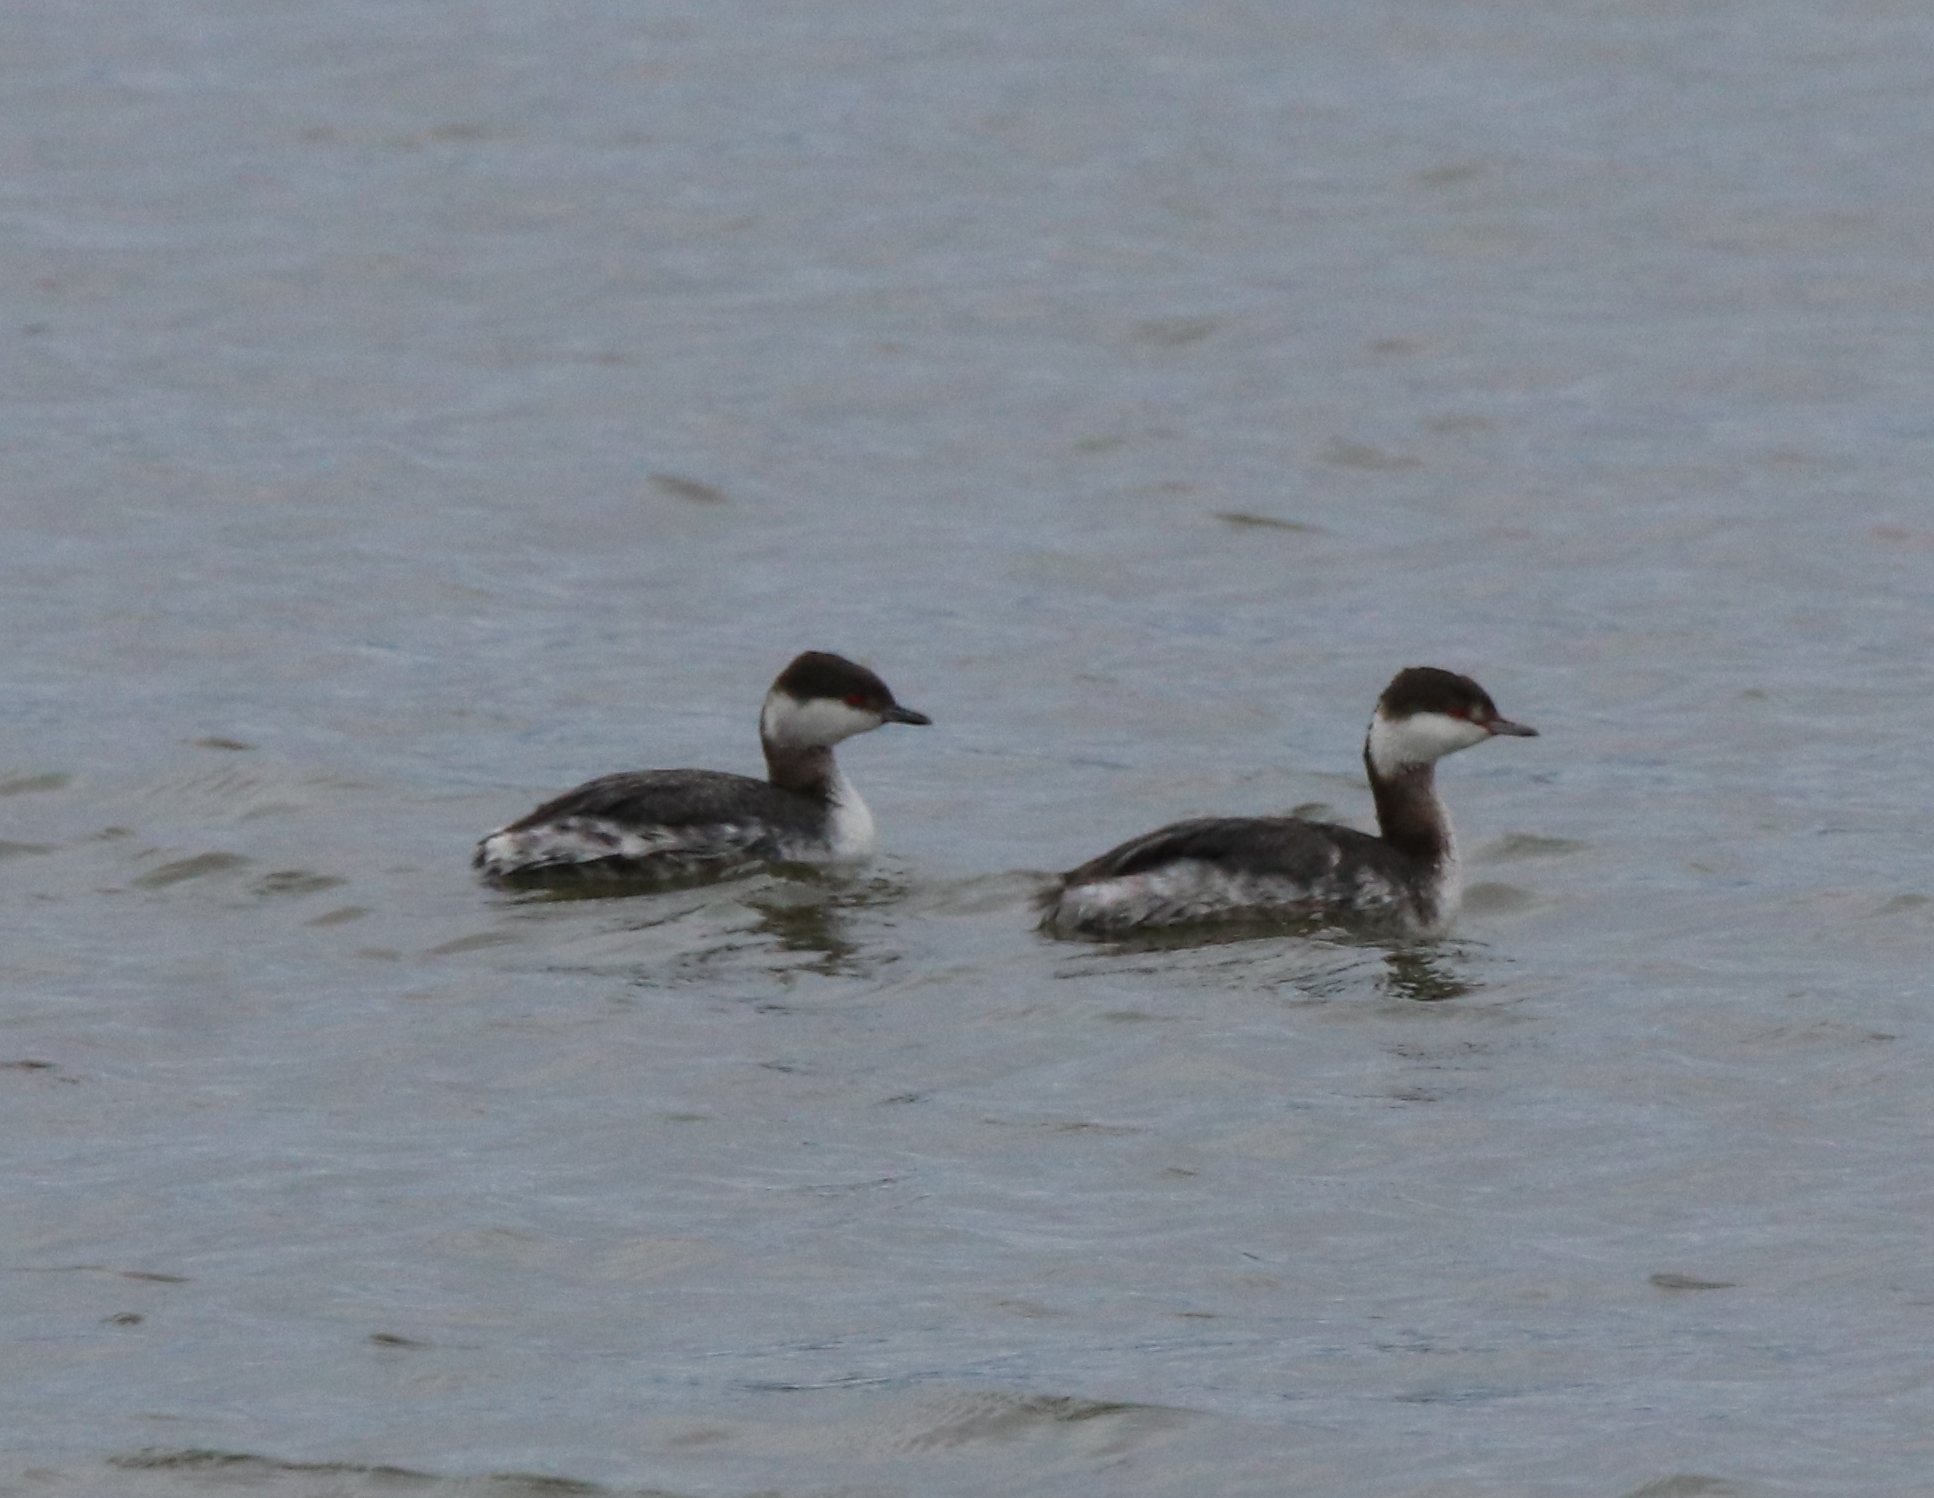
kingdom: Animalia
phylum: Chordata
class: Aves
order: Podicipediformes
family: Podicipedidae
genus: Podiceps
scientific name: Podiceps auritus
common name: Horned grebe
